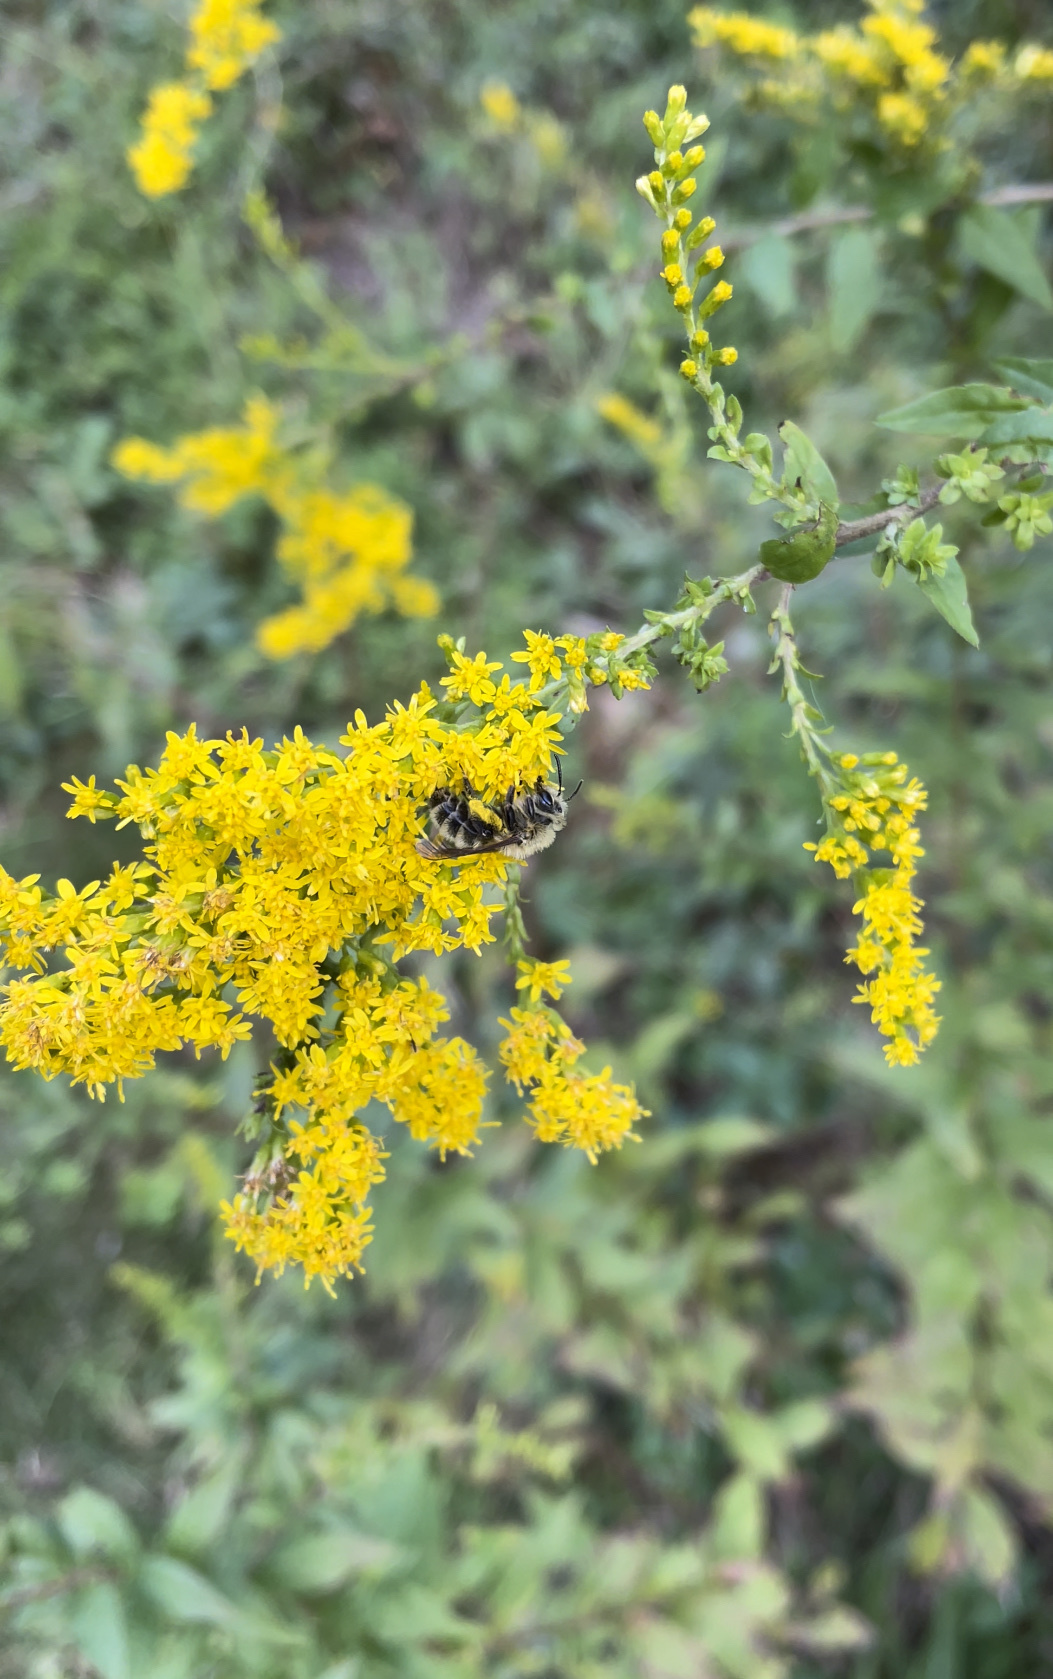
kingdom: Animalia
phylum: Arthropoda
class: Insecta
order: Hymenoptera
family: Andrenidae
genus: Andrena
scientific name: Andrena hirticincta
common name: Hairy-banded mining bee
